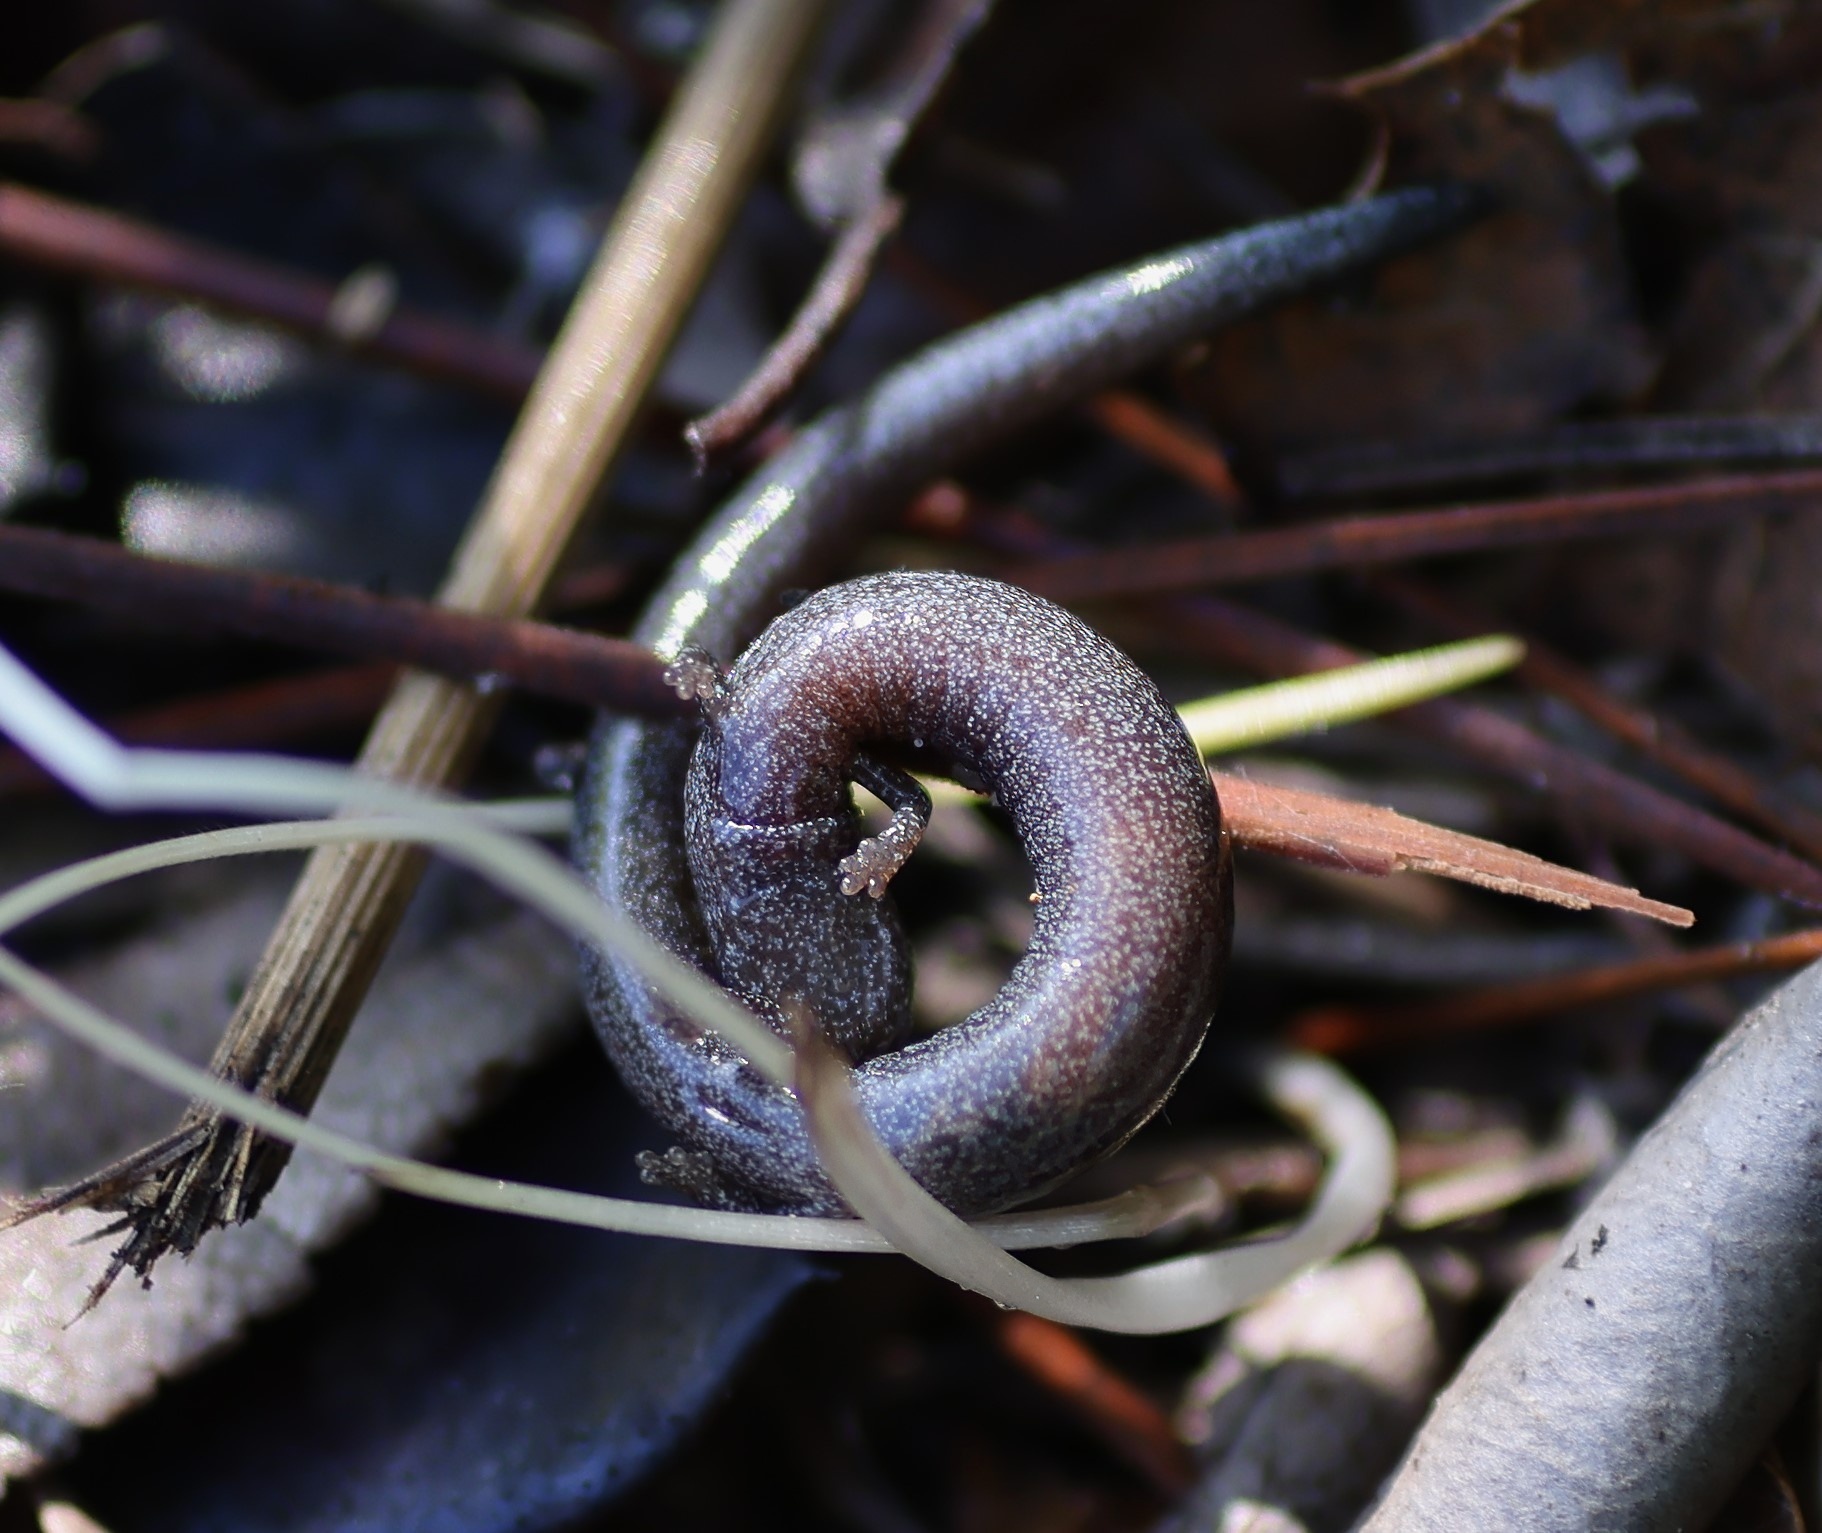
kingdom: Animalia
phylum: Chordata
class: Amphibia
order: Caudata
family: Plethodontidae
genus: Batrachoseps
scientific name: Batrachoseps nigriventris
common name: Black-bellied slender salamander
